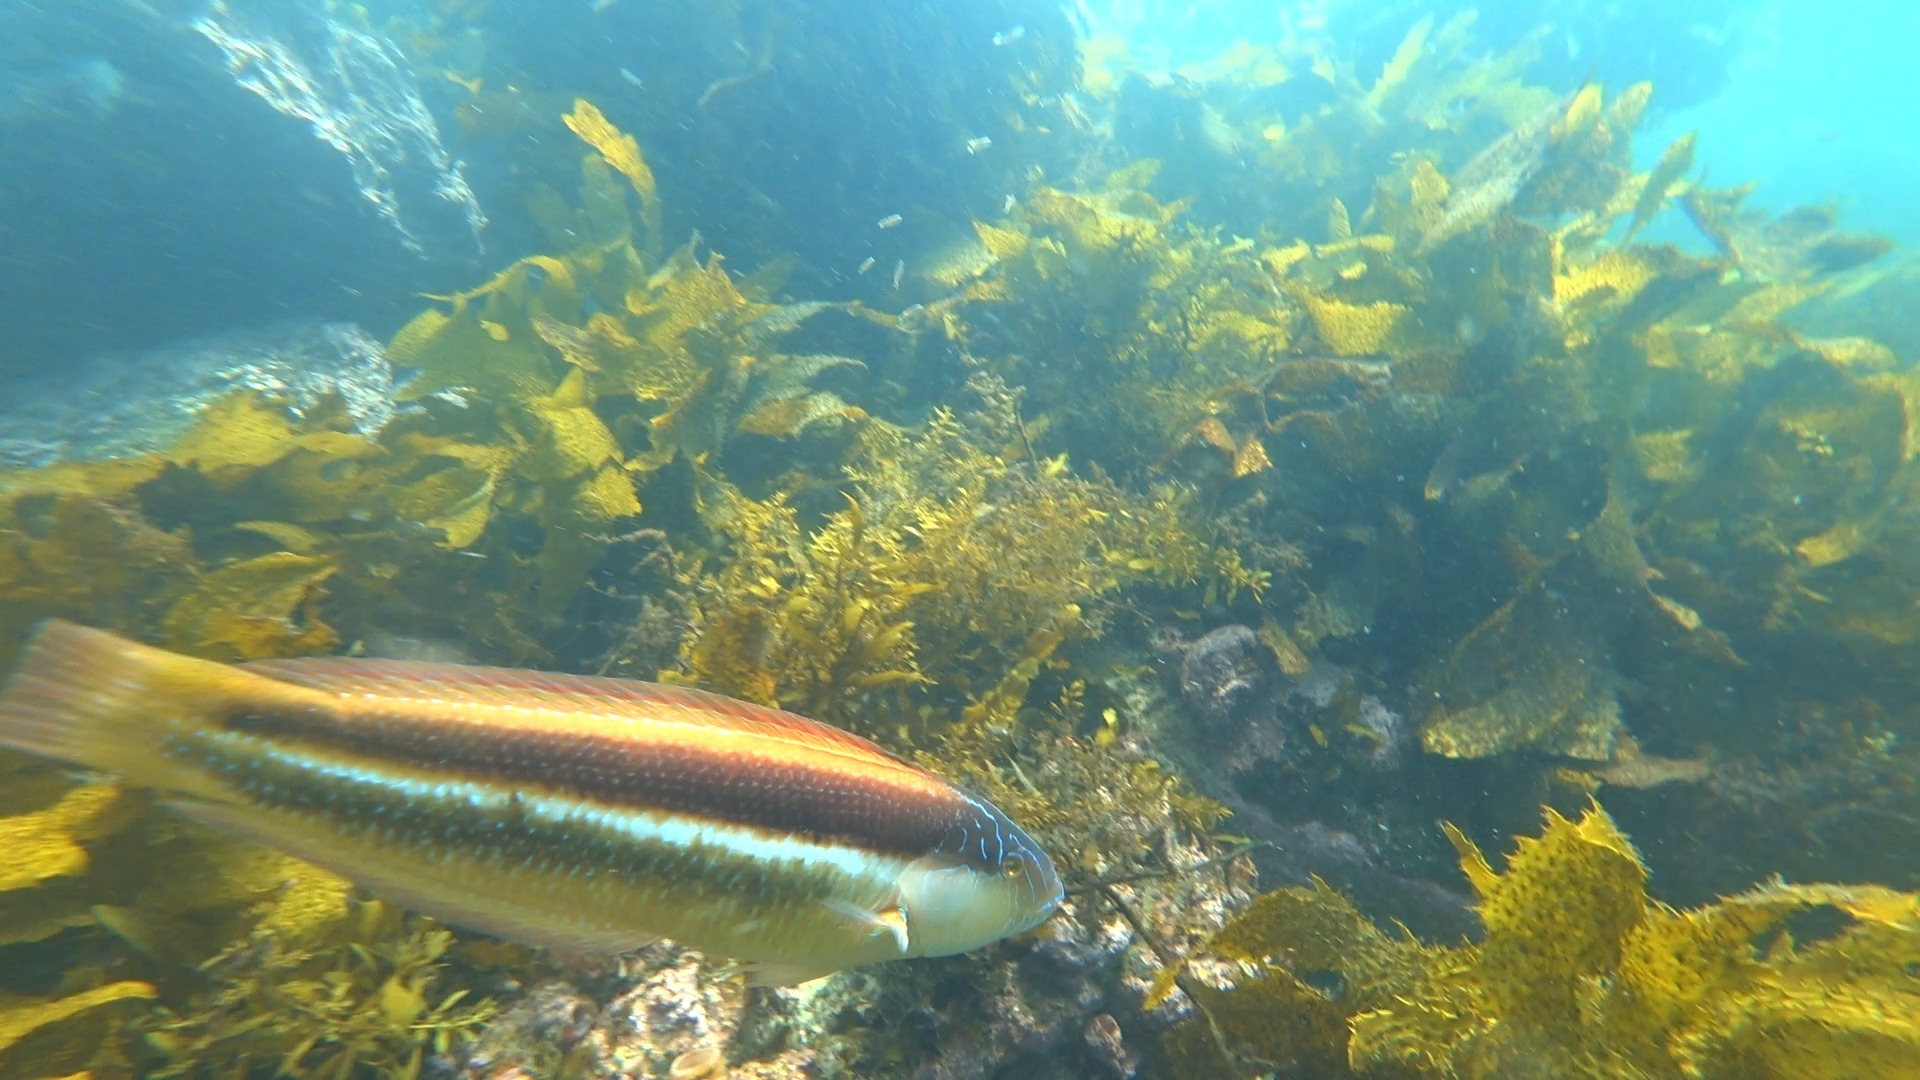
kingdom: Animalia
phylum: Chordata
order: Perciformes
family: Labridae
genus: Ophthalmolepis
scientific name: Ophthalmolepis lineolata
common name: Maori wrasse
